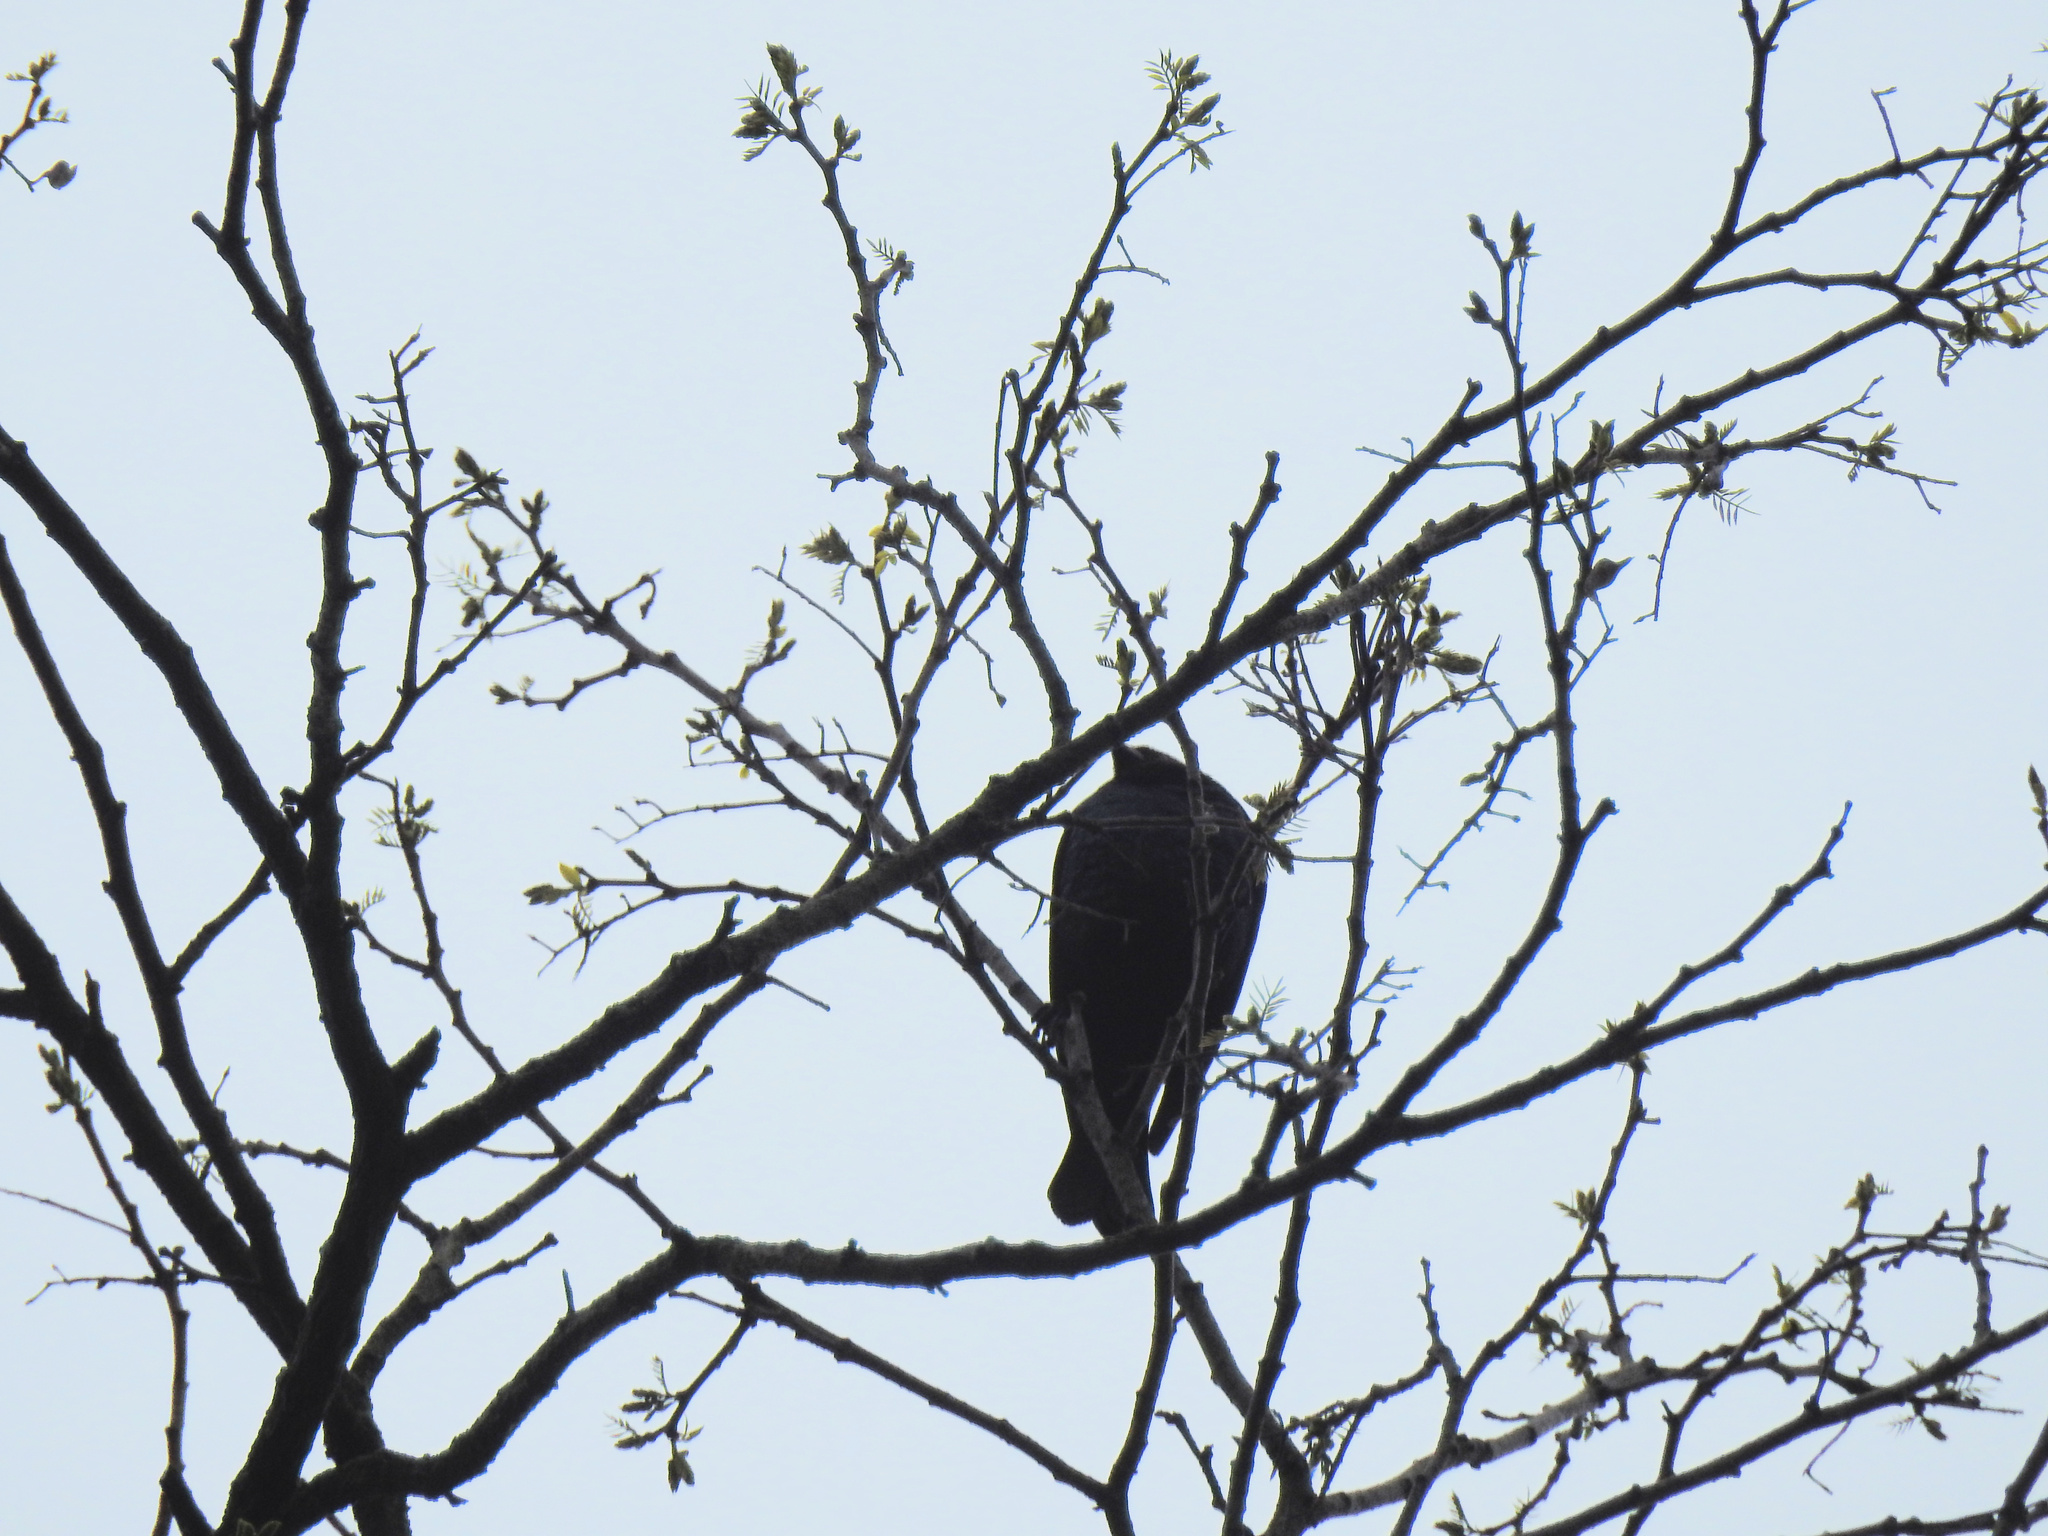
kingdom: Animalia
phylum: Chordata
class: Aves
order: Passeriformes
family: Icteridae
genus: Molothrus
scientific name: Molothrus ater
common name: Brown-headed cowbird
